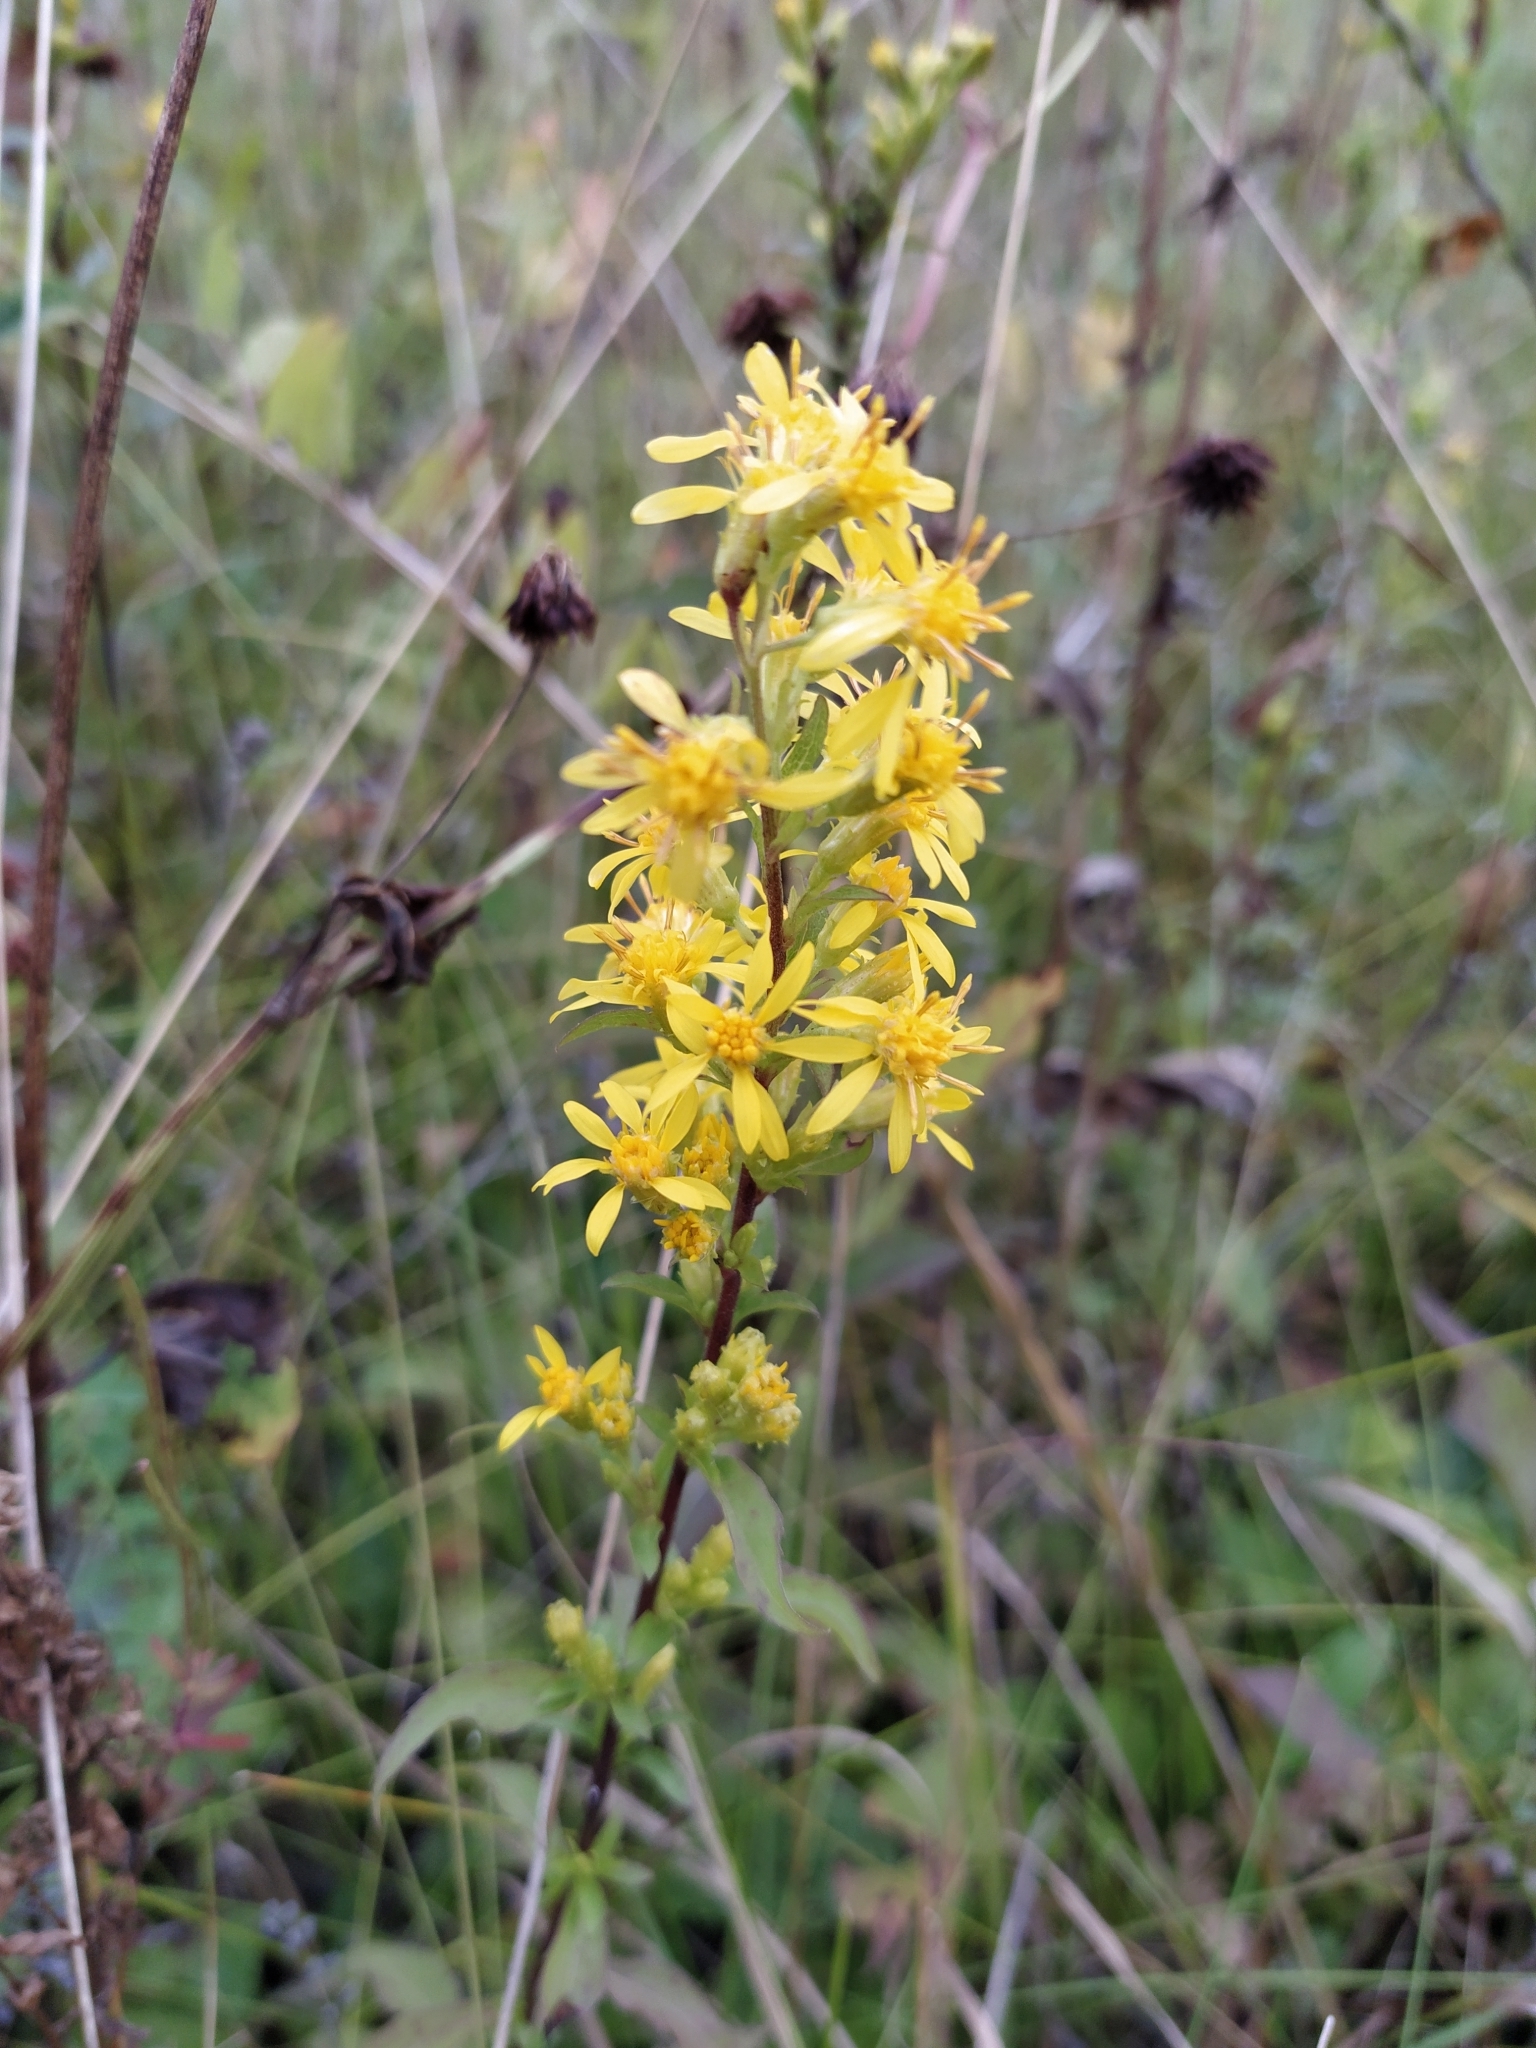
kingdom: Plantae
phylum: Tracheophyta
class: Magnoliopsida
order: Asterales
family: Asteraceae
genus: Solidago
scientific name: Solidago virgaurea
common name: Goldenrod
